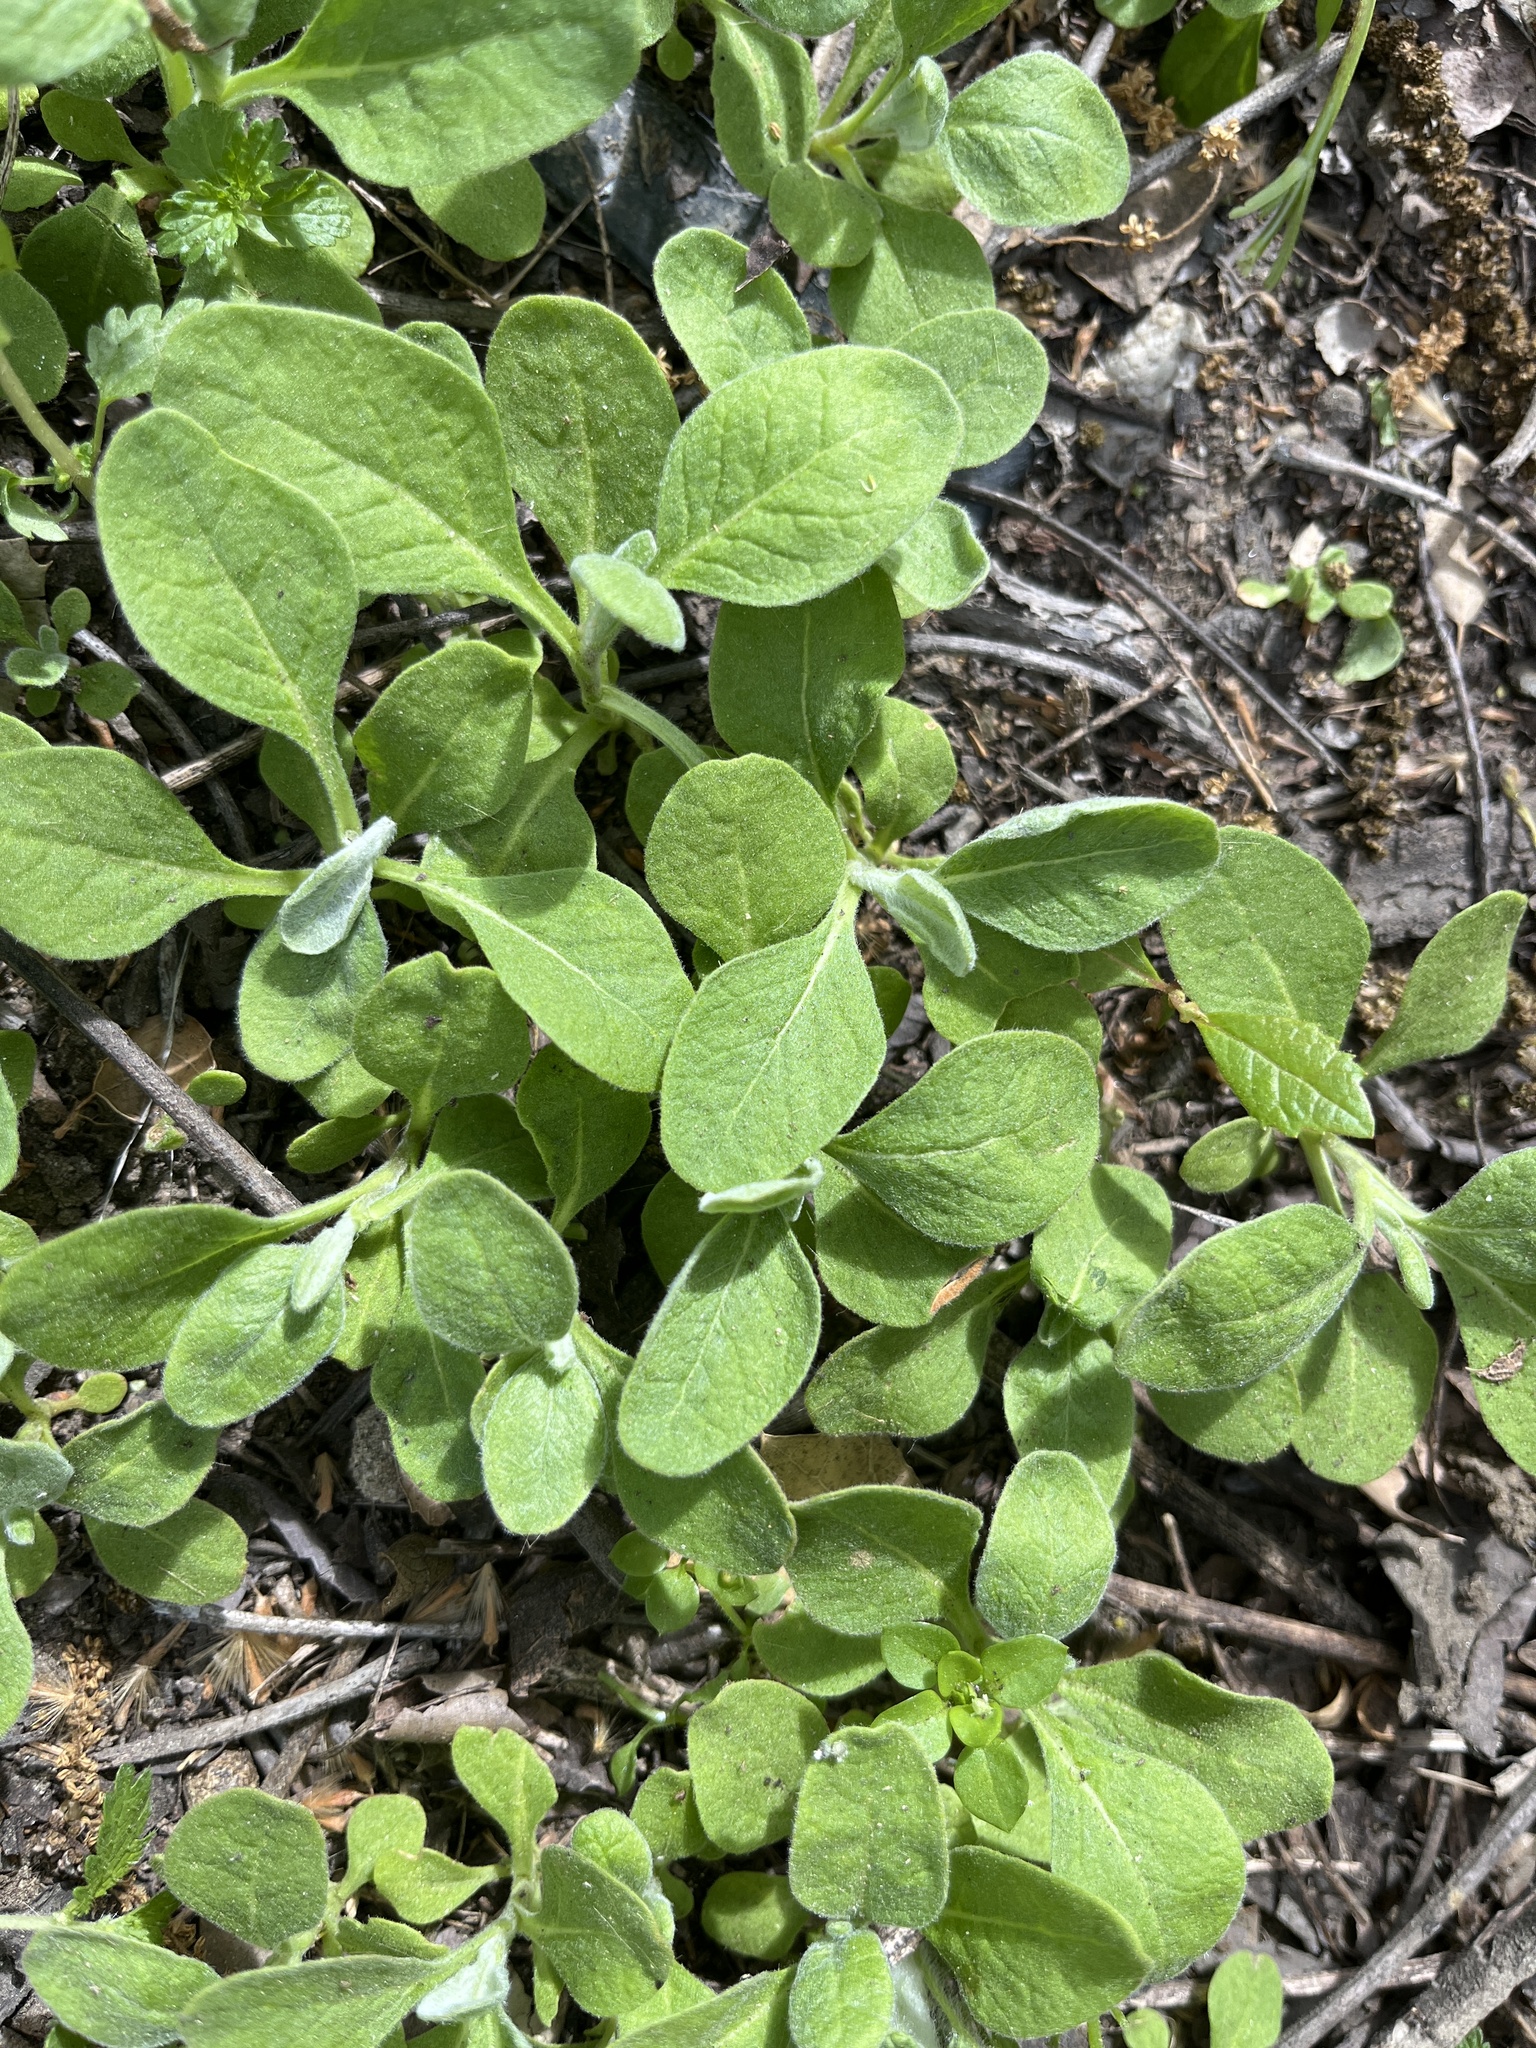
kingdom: Plantae
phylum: Tracheophyta
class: Magnoliopsida
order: Rosales
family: Urticaceae
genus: Parietaria
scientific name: Parietaria hespera
